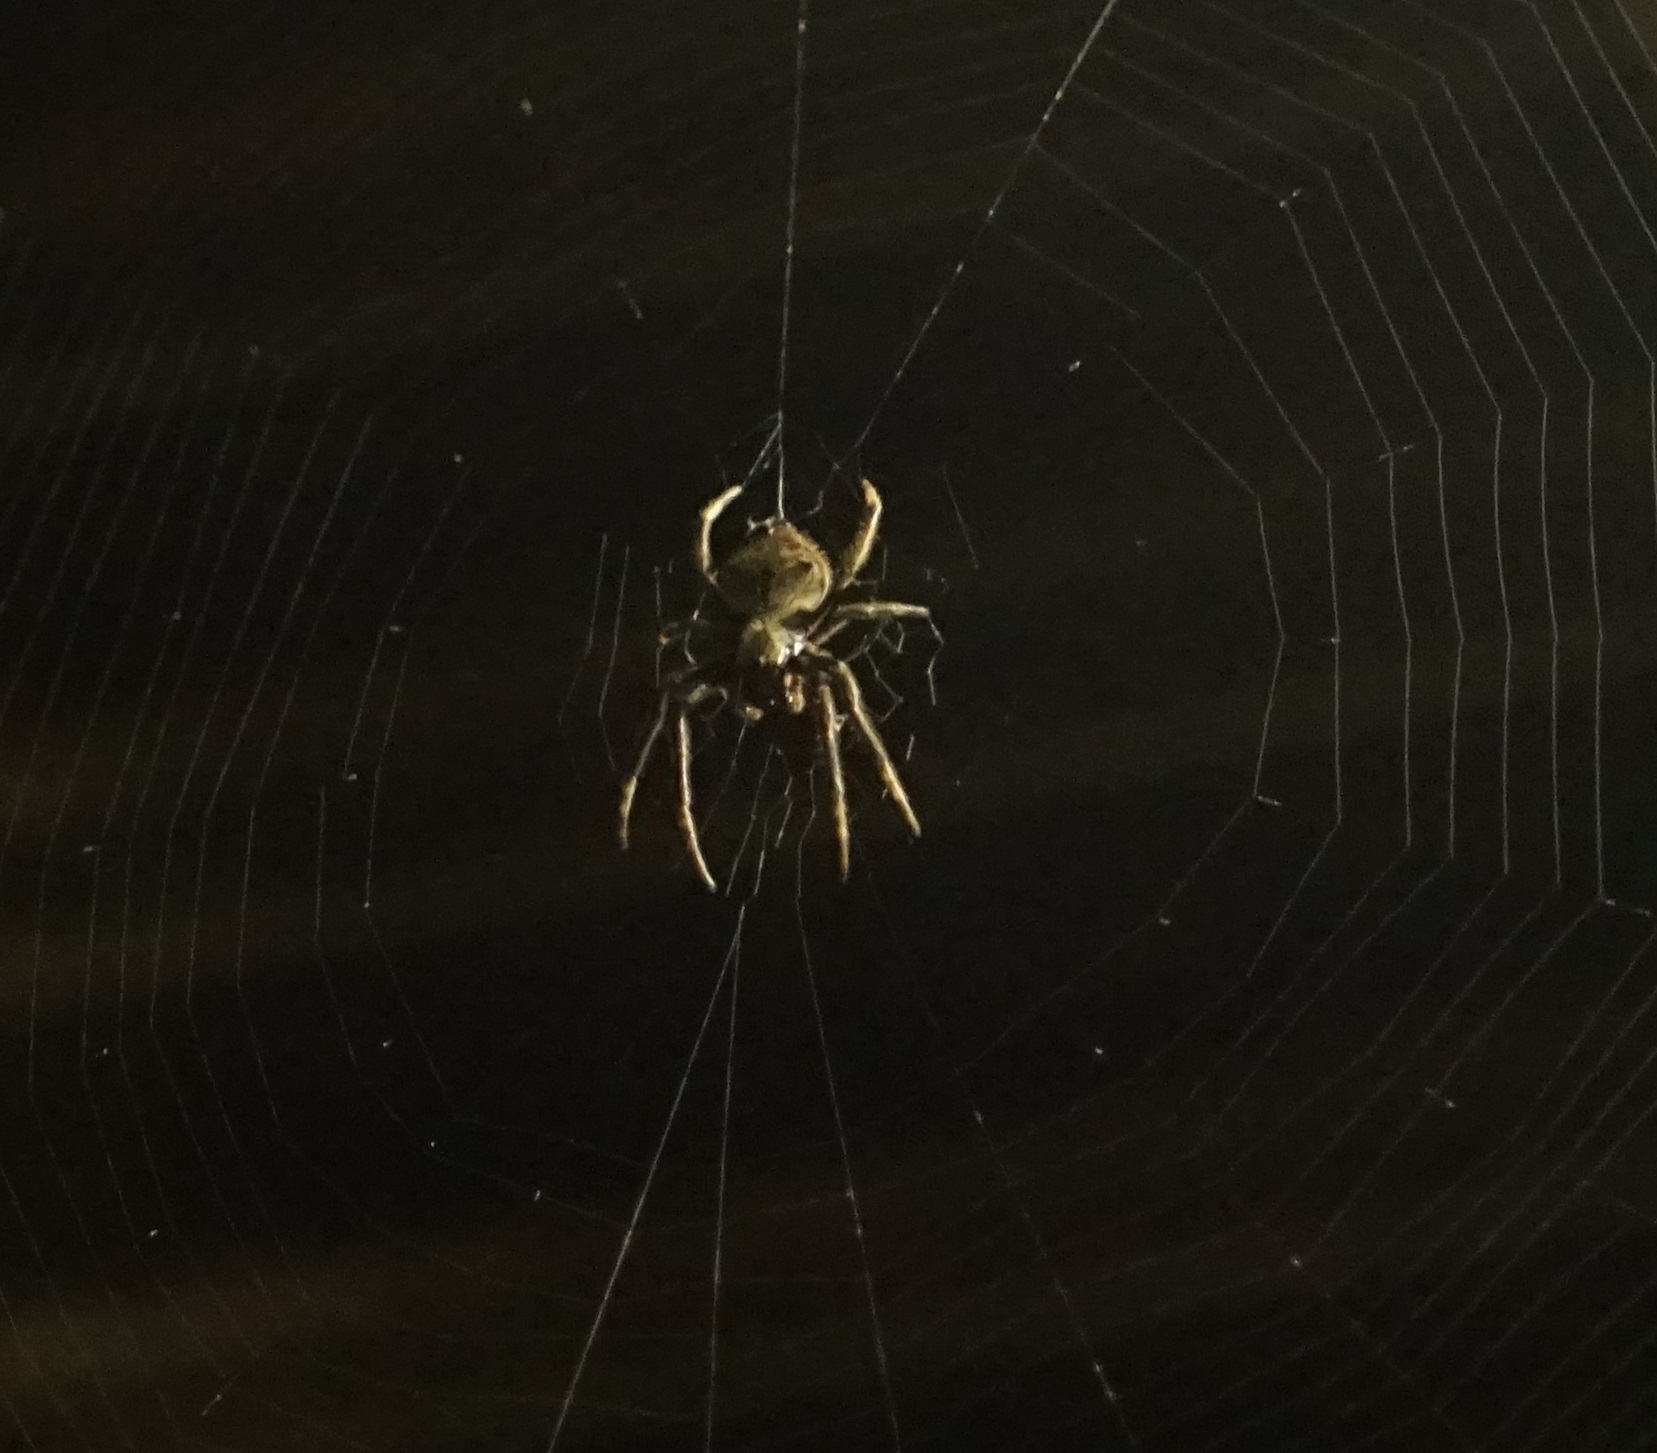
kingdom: Animalia
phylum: Arthropoda
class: Arachnida
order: Araneae
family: Araneidae
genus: Hortophora
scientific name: Hortophora
